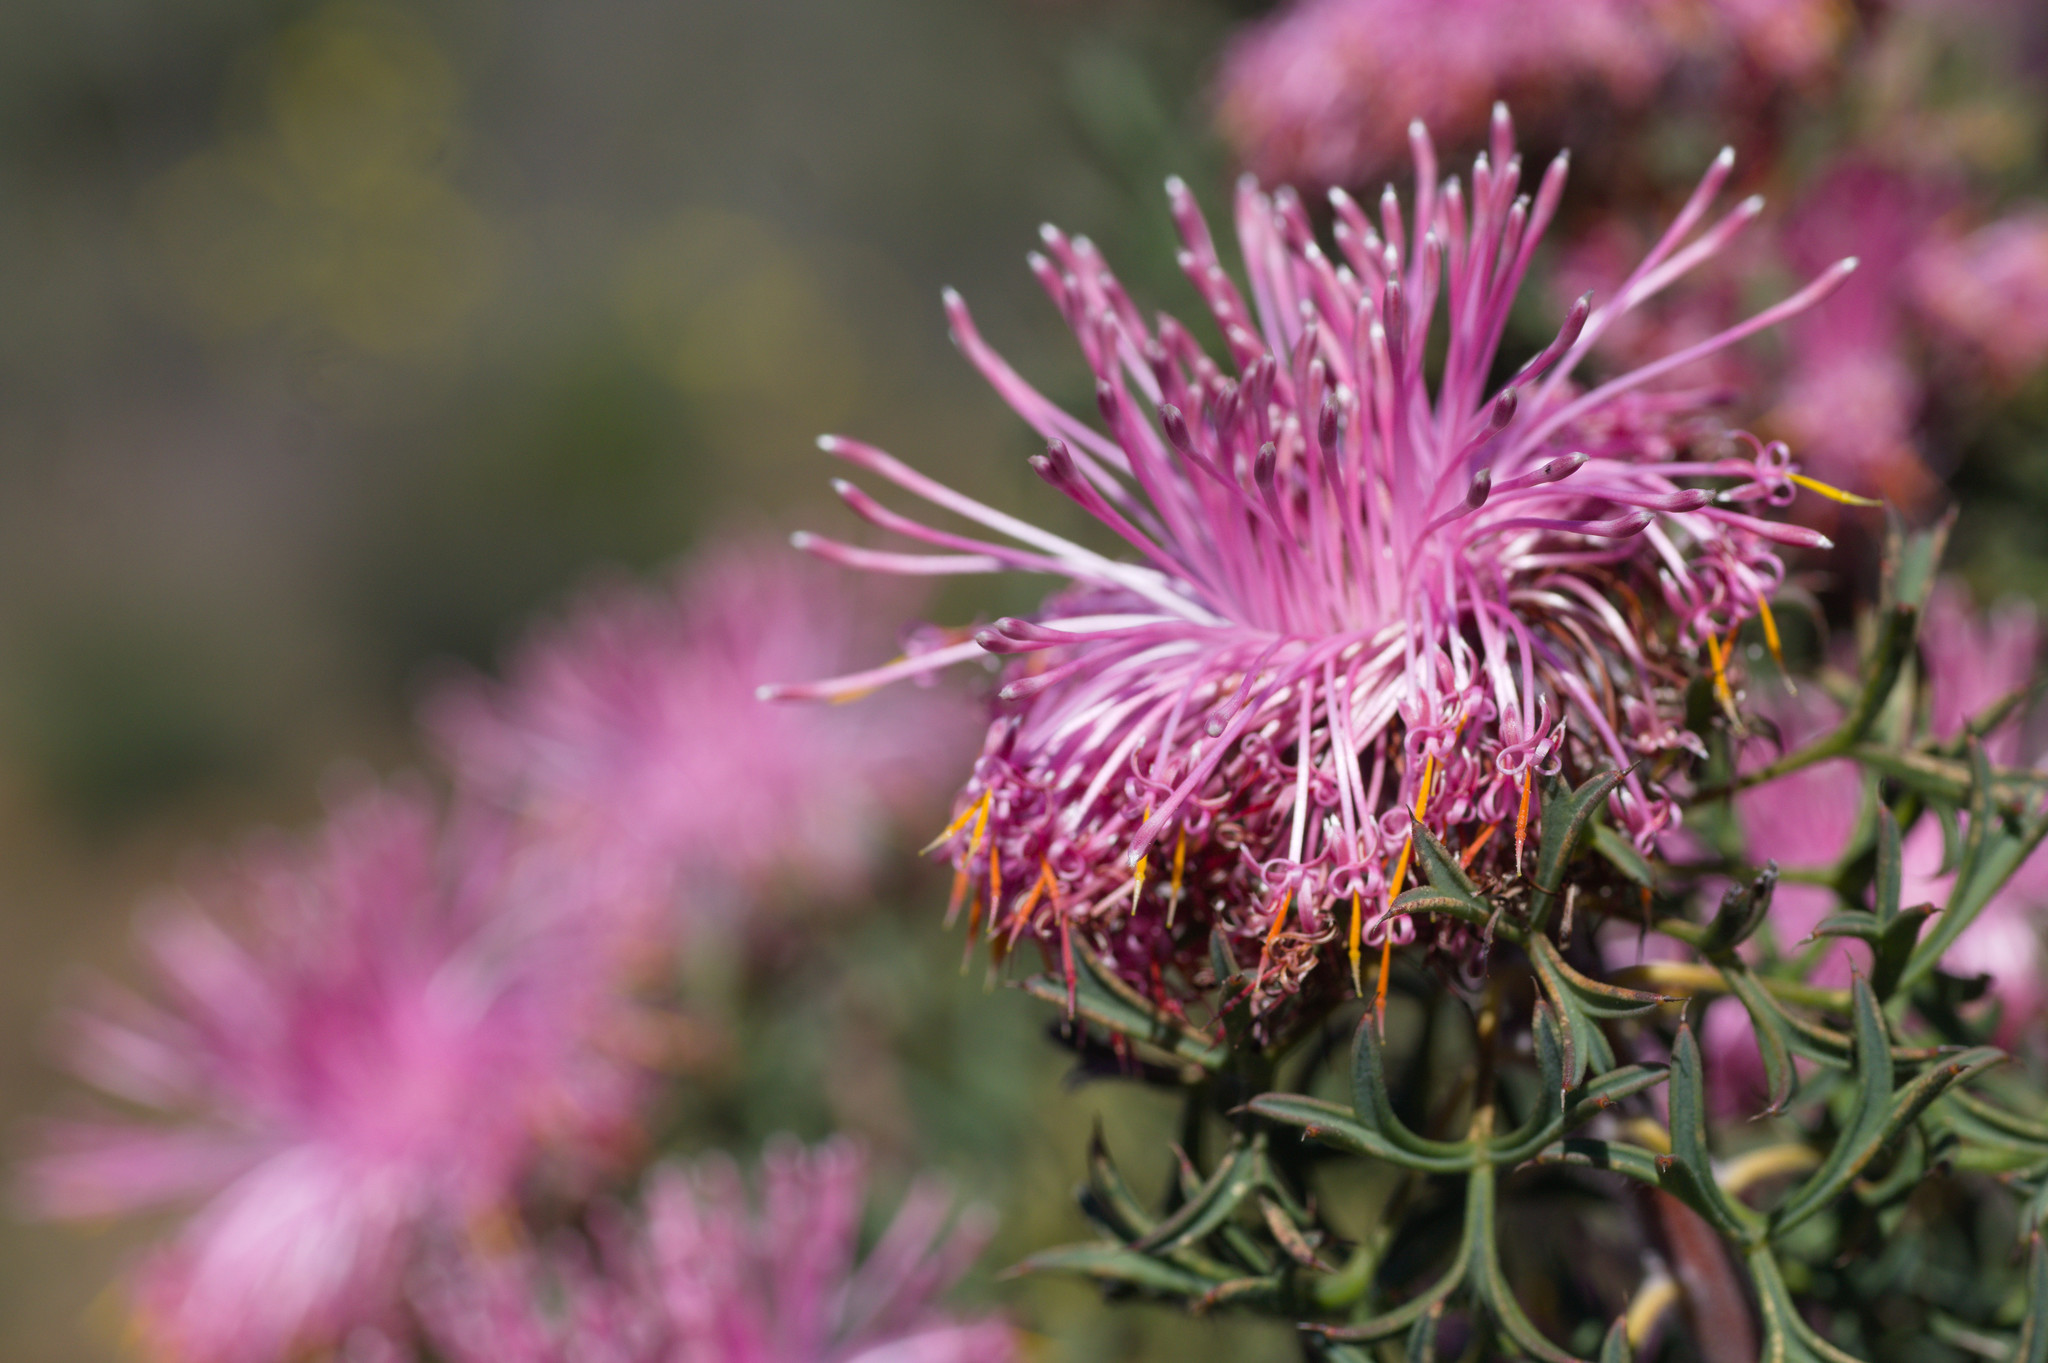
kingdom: Plantae
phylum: Tracheophyta
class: Magnoliopsida
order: Proteales
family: Proteaceae
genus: Isopogon
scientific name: Isopogon dubius
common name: Pincushion-coneflower
